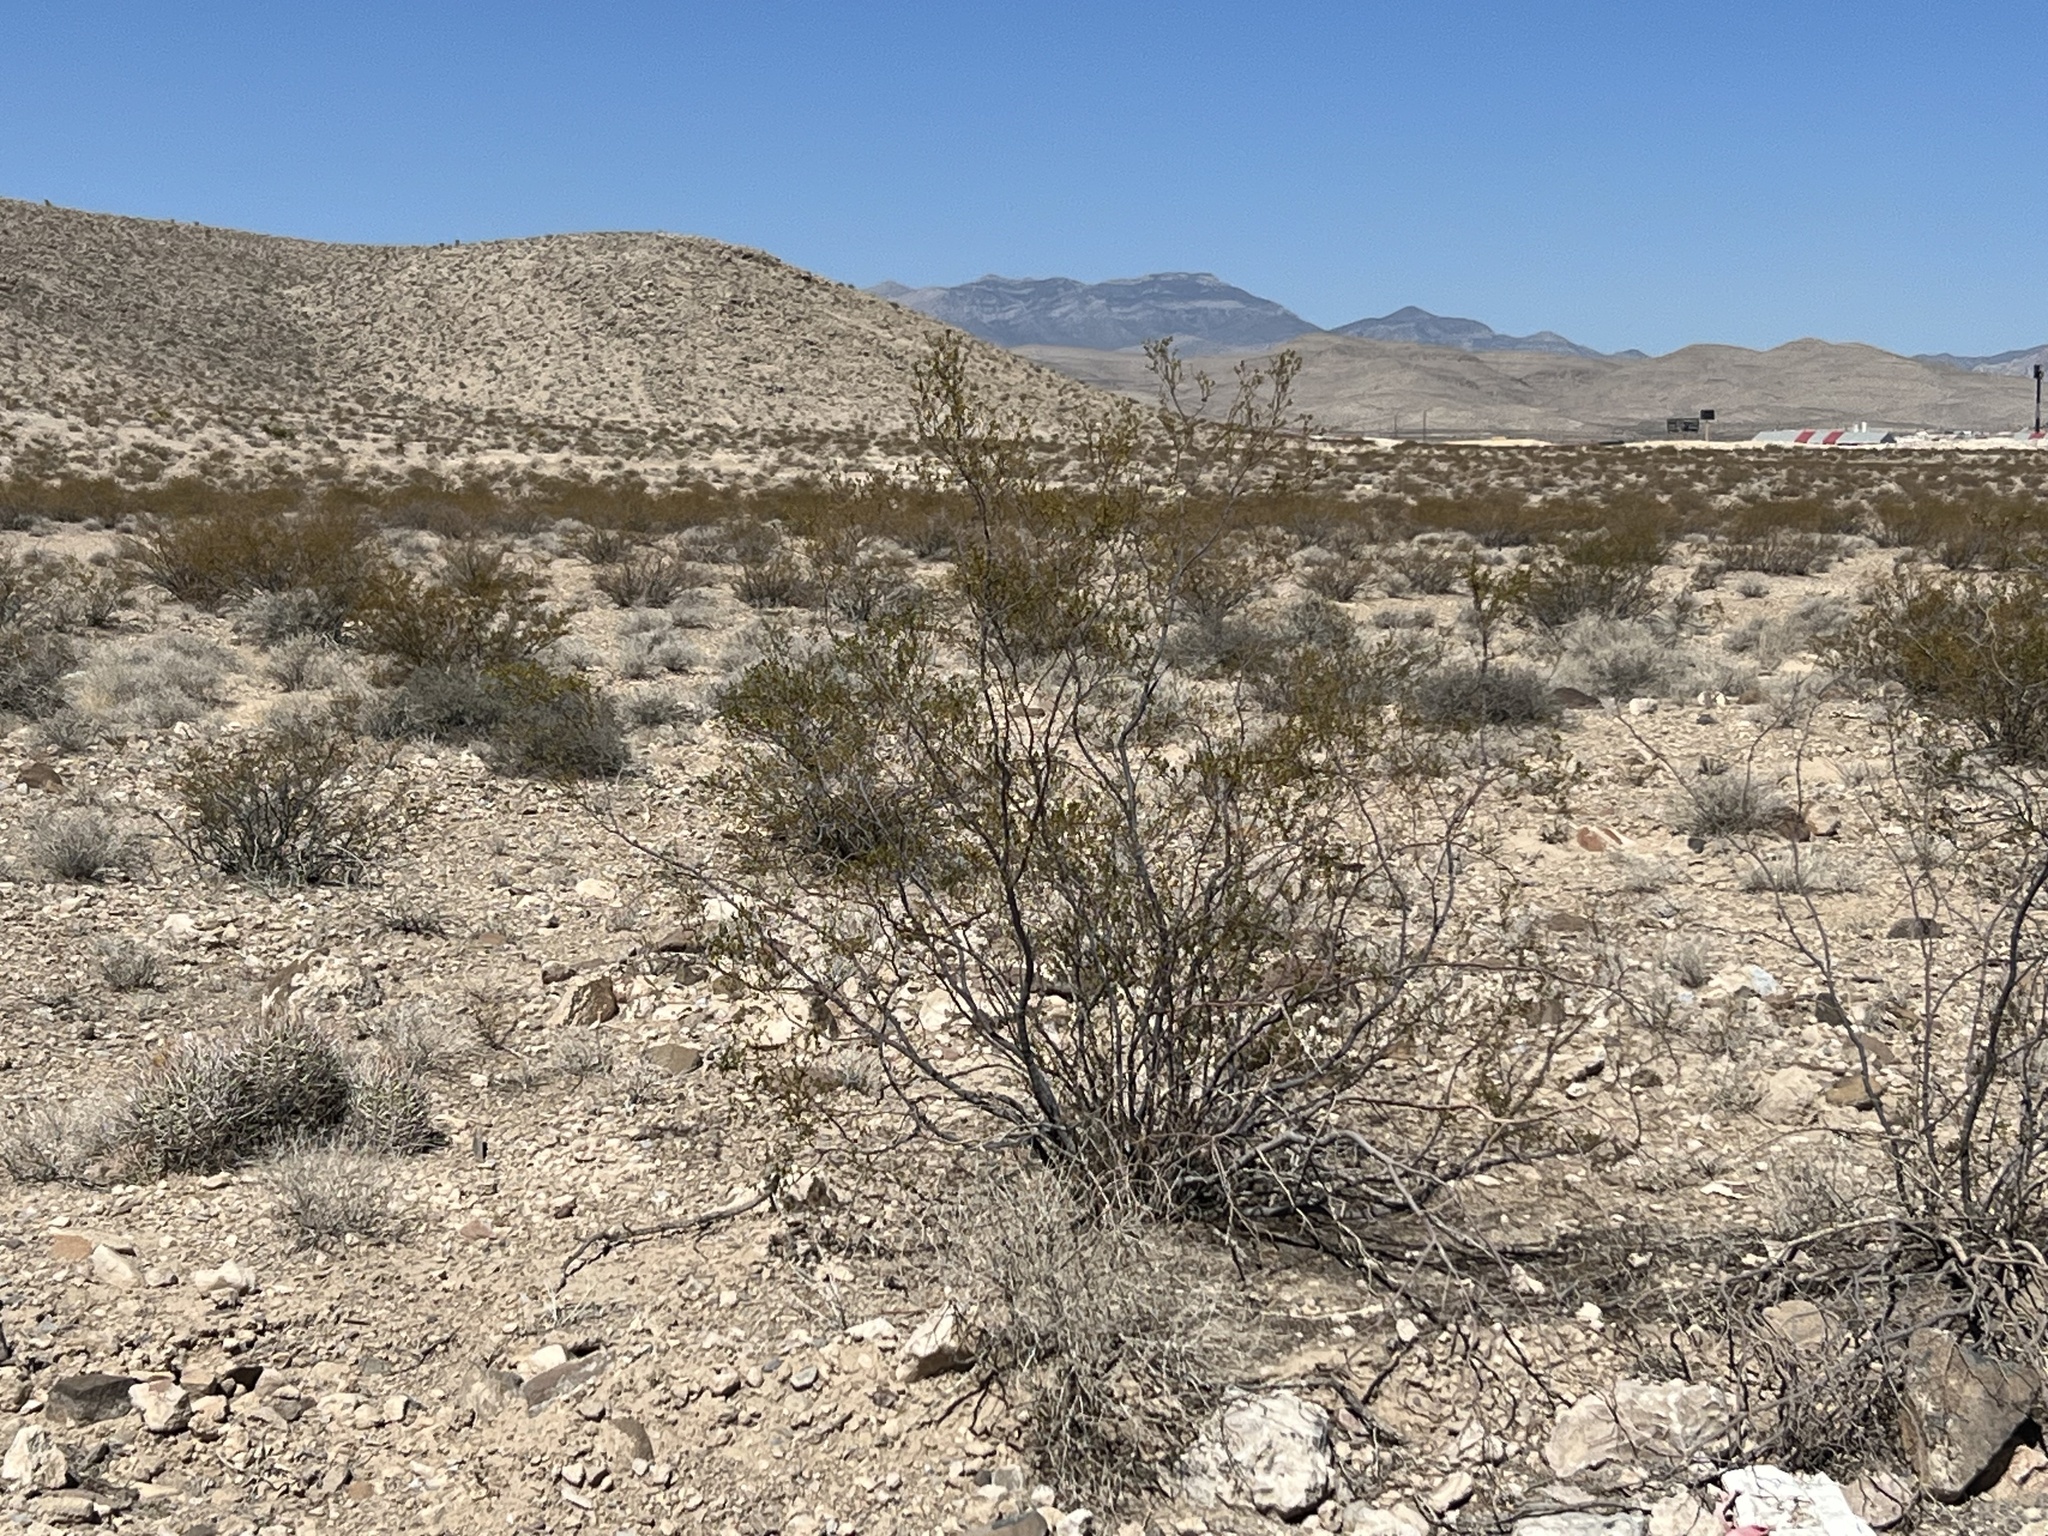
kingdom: Plantae
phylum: Tracheophyta
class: Magnoliopsida
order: Zygophyllales
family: Zygophyllaceae
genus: Larrea
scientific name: Larrea tridentata
